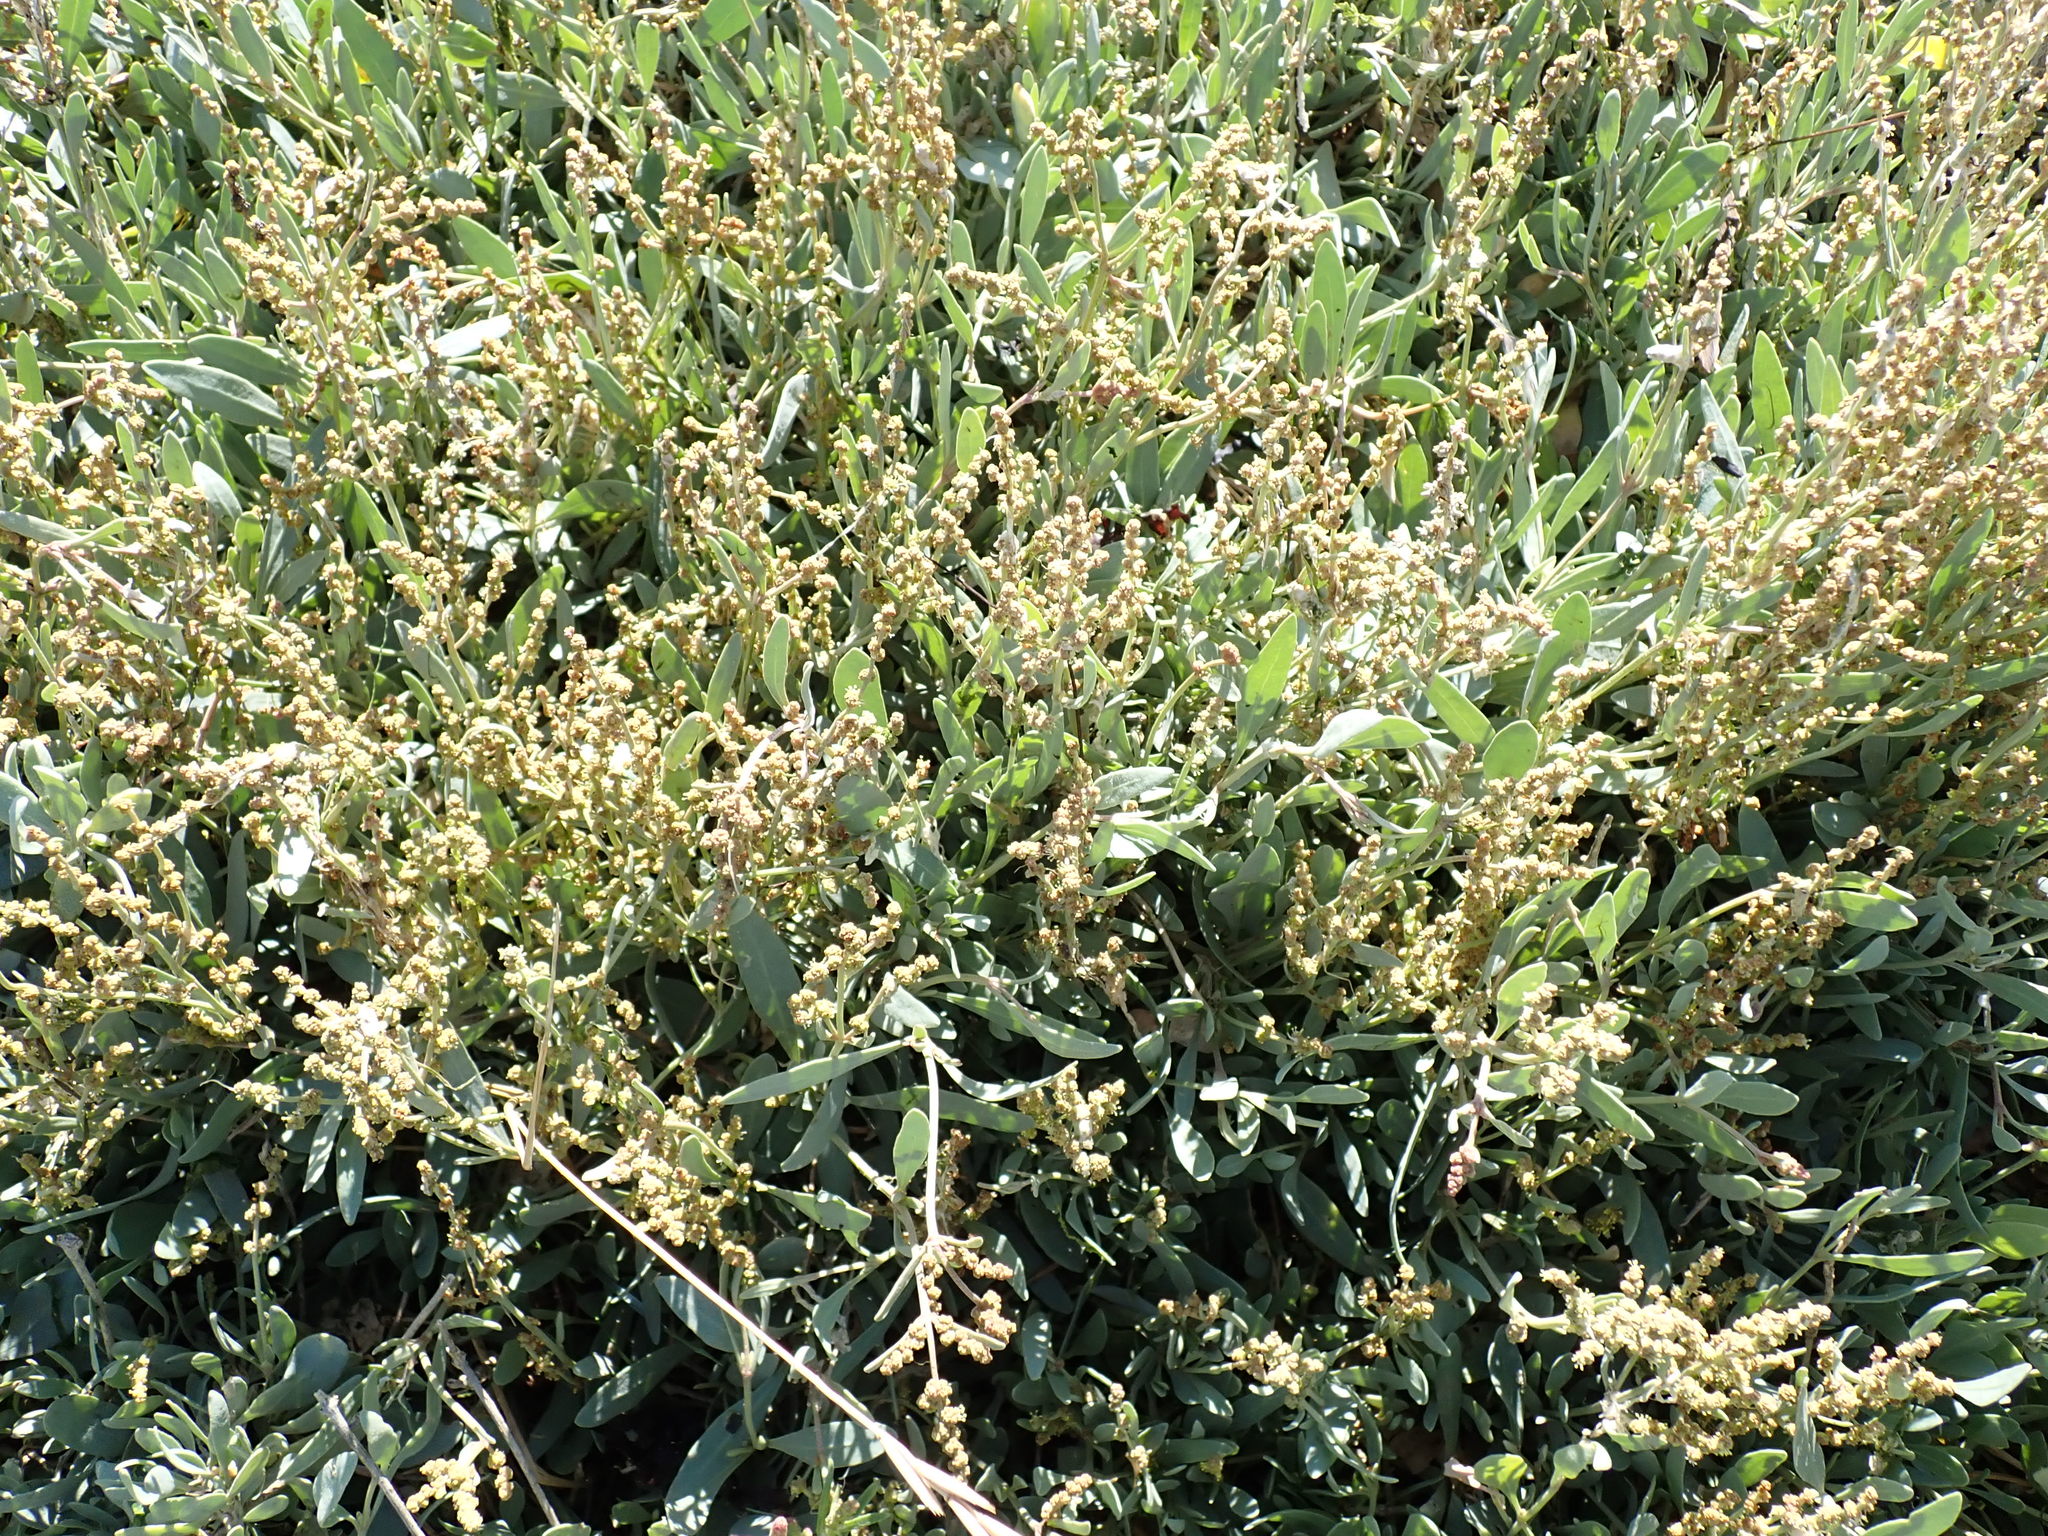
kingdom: Plantae
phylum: Tracheophyta
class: Magnoliopsida
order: Caryophyllales
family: Amaranthaceae
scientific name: Amaranthaceae
